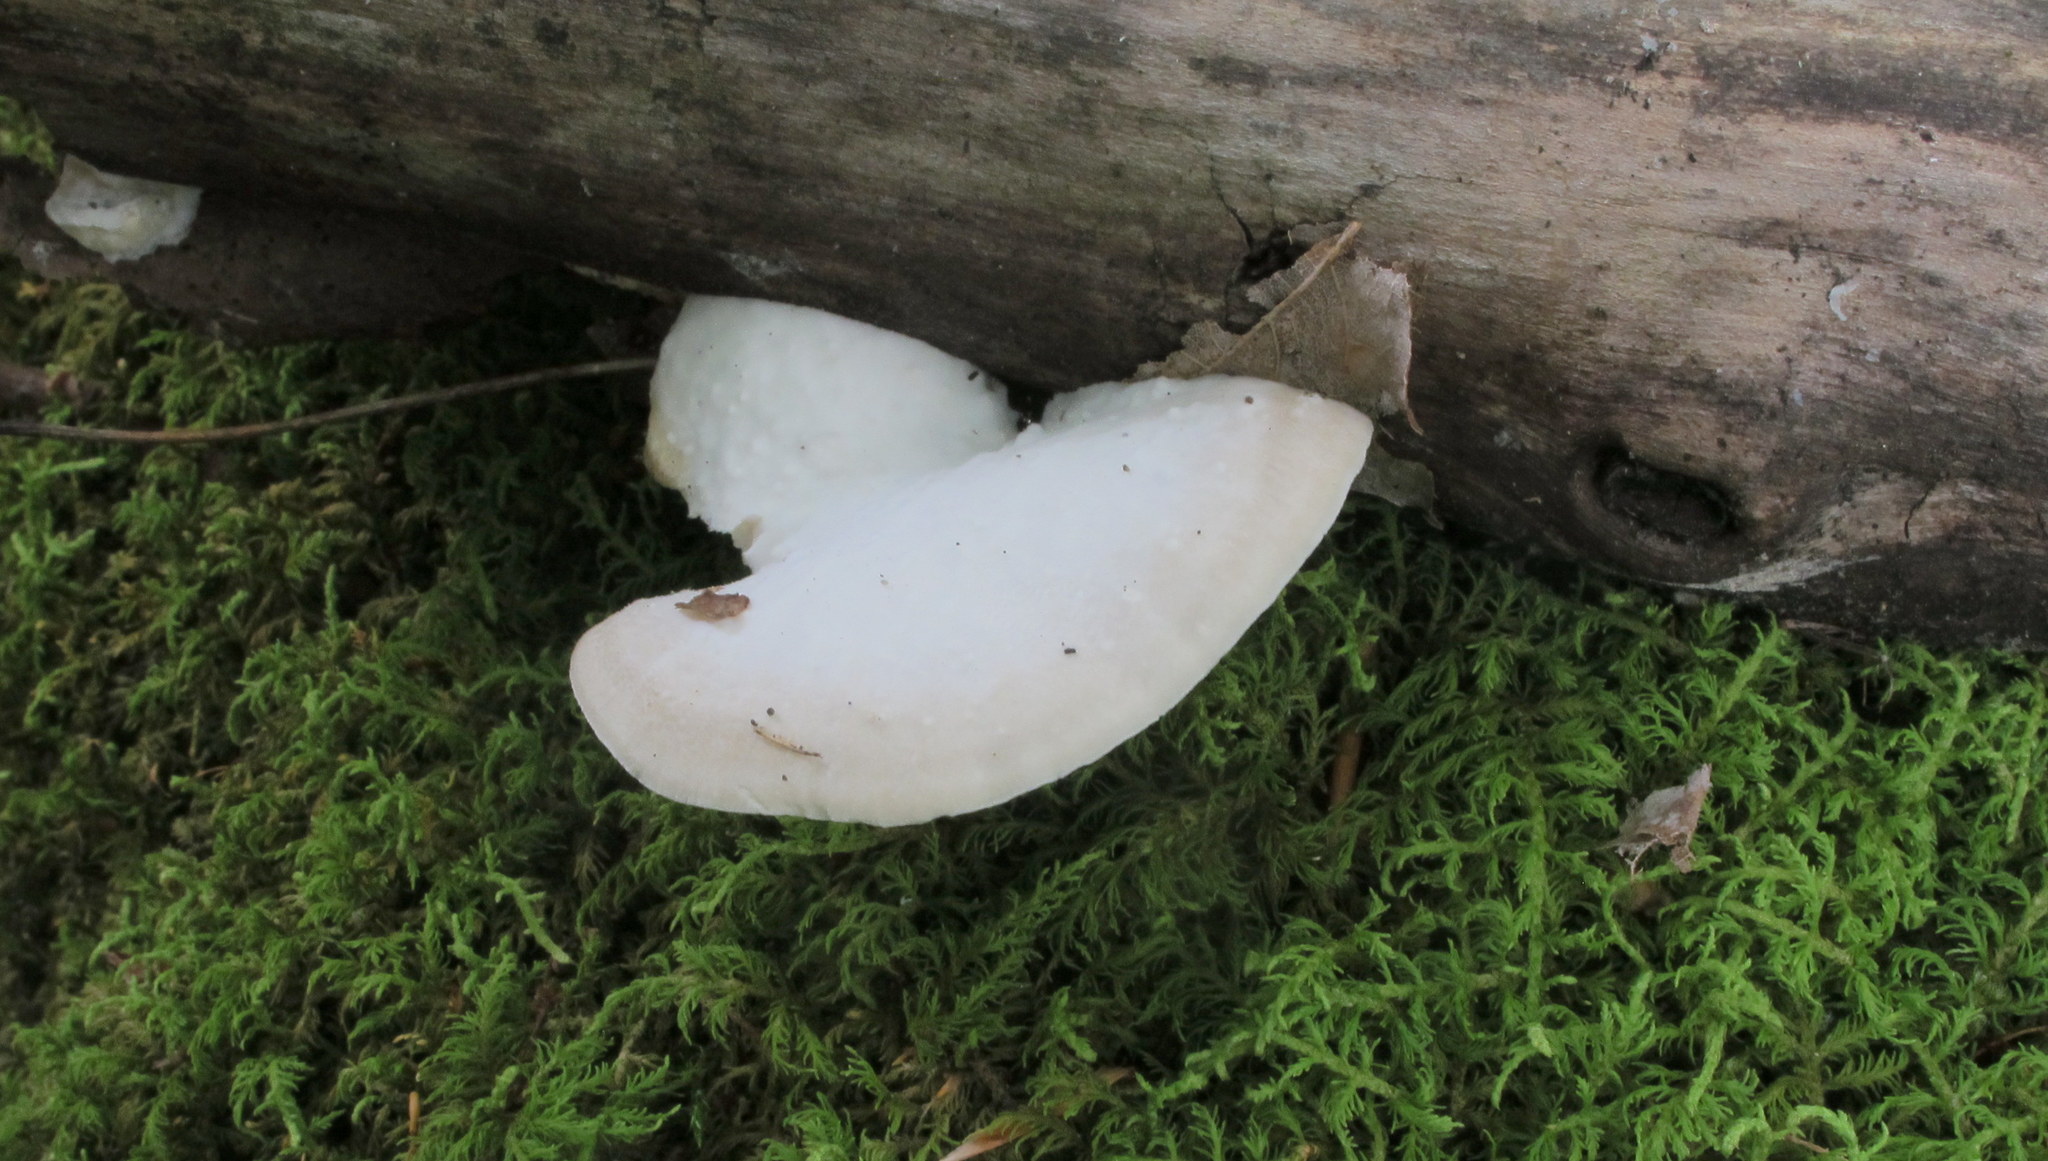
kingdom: Fungi
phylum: Basidiomycota
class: Agaricomycetes
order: Polyporales
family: Incrustoporiaceae
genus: Tyromyces
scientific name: Tyromyces chioneus
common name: White cheese polypore
